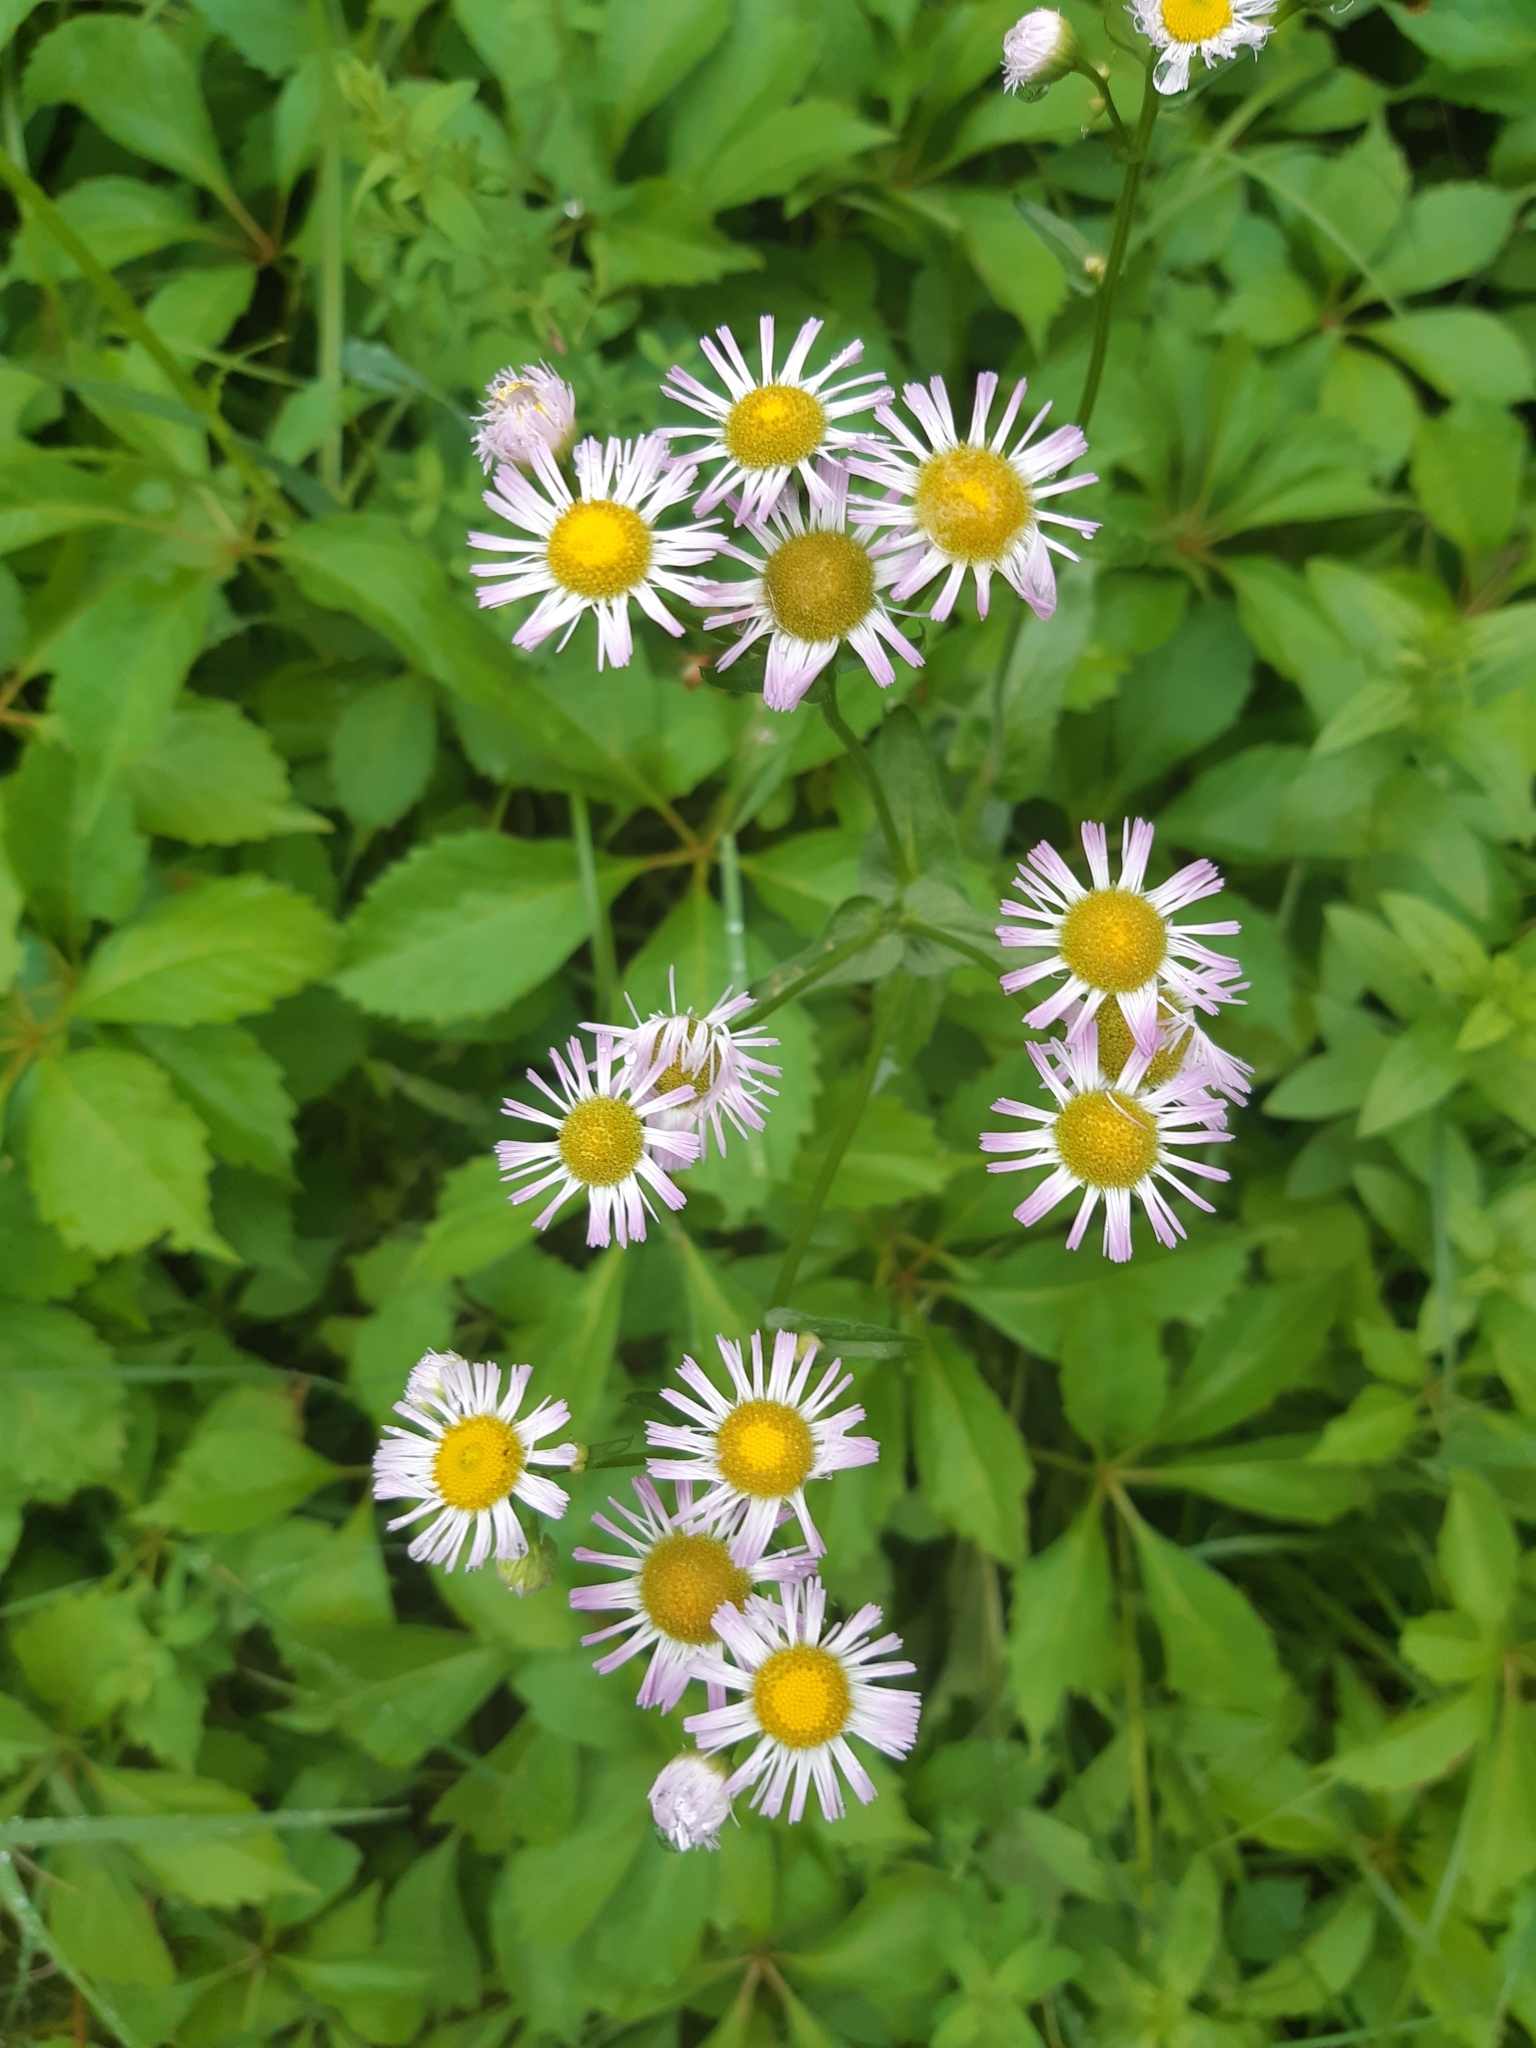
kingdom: Plantae
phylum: Tracheophyta
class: Magnoliopsida
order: Asterales
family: Asteraceae
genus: Erigeron
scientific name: Erigeron
